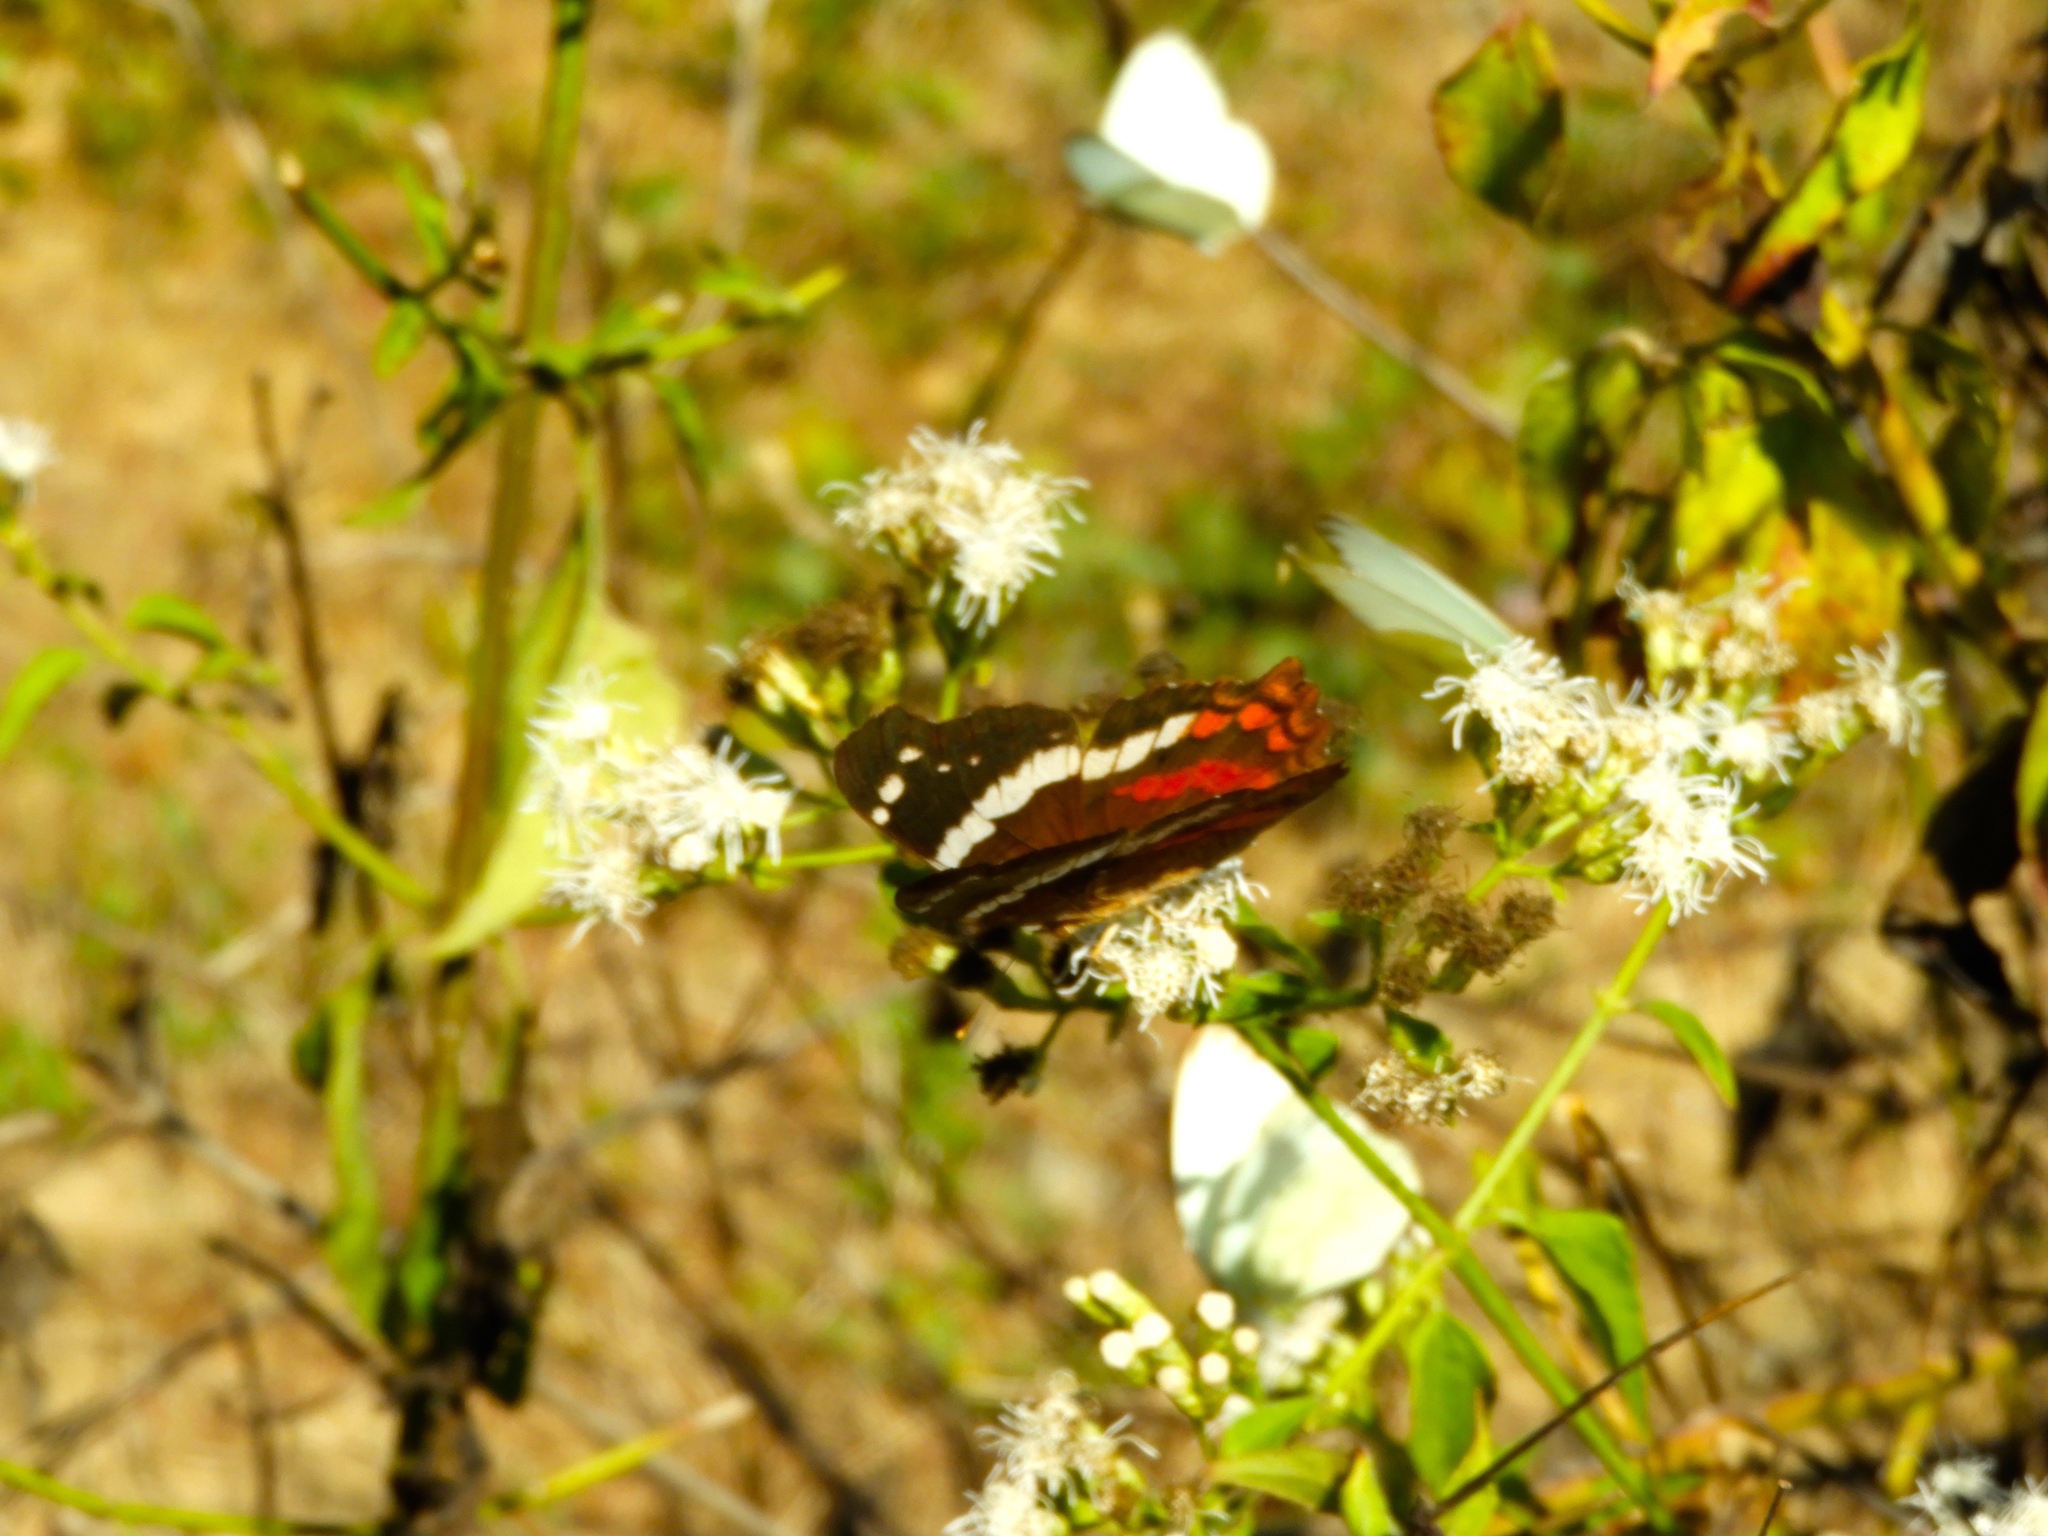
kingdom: Animalia
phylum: Arthropoda
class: Insecta
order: Lepidoptera
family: Nymphalidae
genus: Anartia
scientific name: Anartia fatima
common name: Banded peacock
